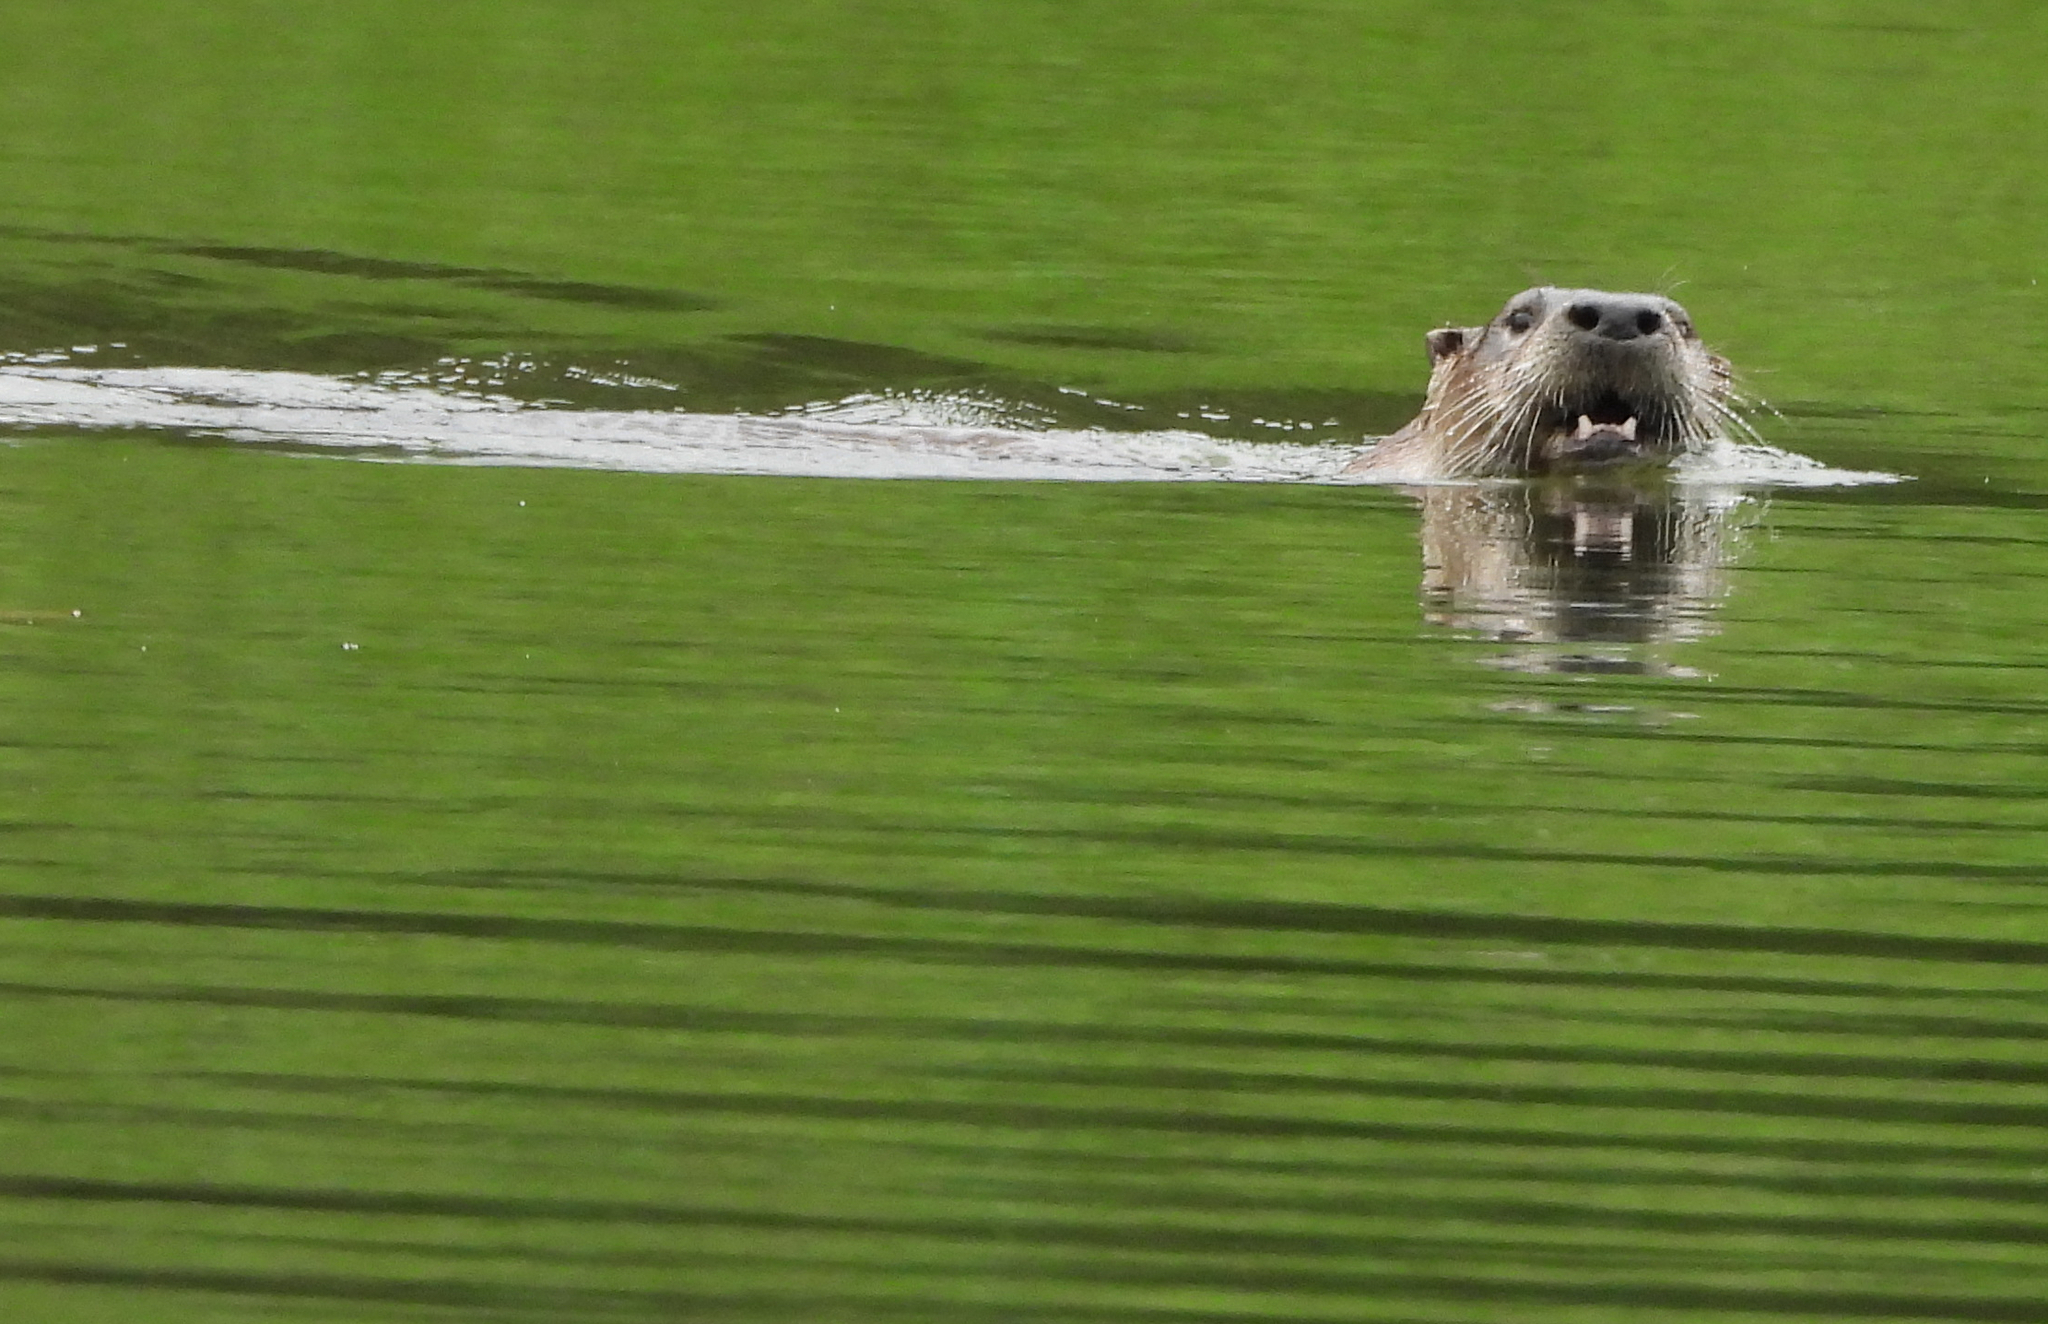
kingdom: Animalia
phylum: Chordata
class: Mammalia
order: Carnivora
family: Mustelidae
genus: Lontra
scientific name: Lontra canadensis
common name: North american river otter
